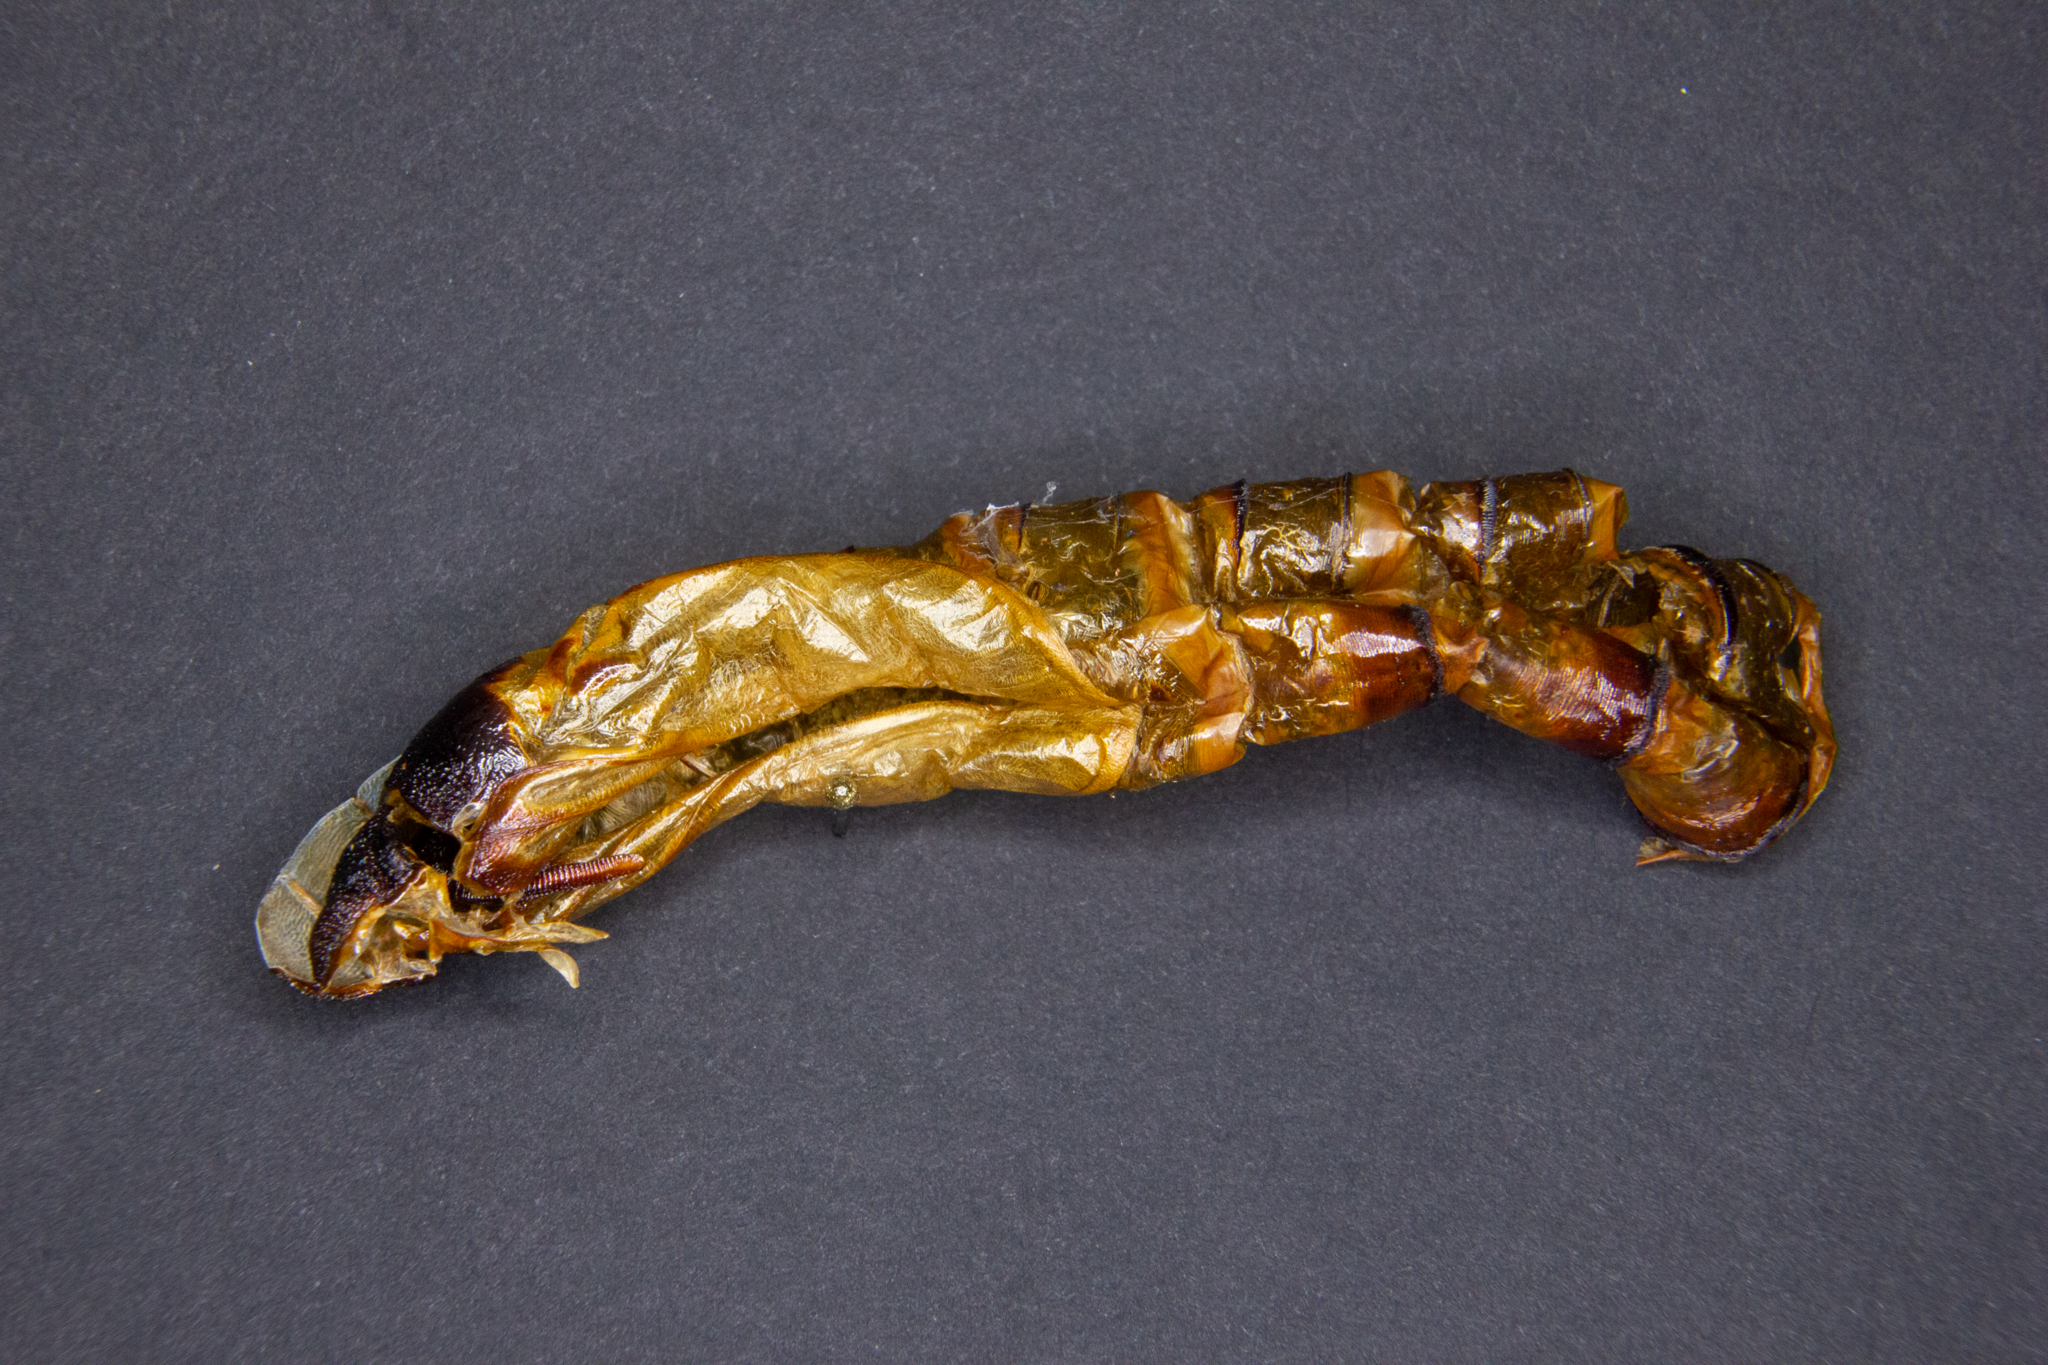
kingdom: Animalia
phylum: Arthropoda
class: Insecta
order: Lepidoptera
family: Hepialidae
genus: Aenetus
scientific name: Aenetus virescens
